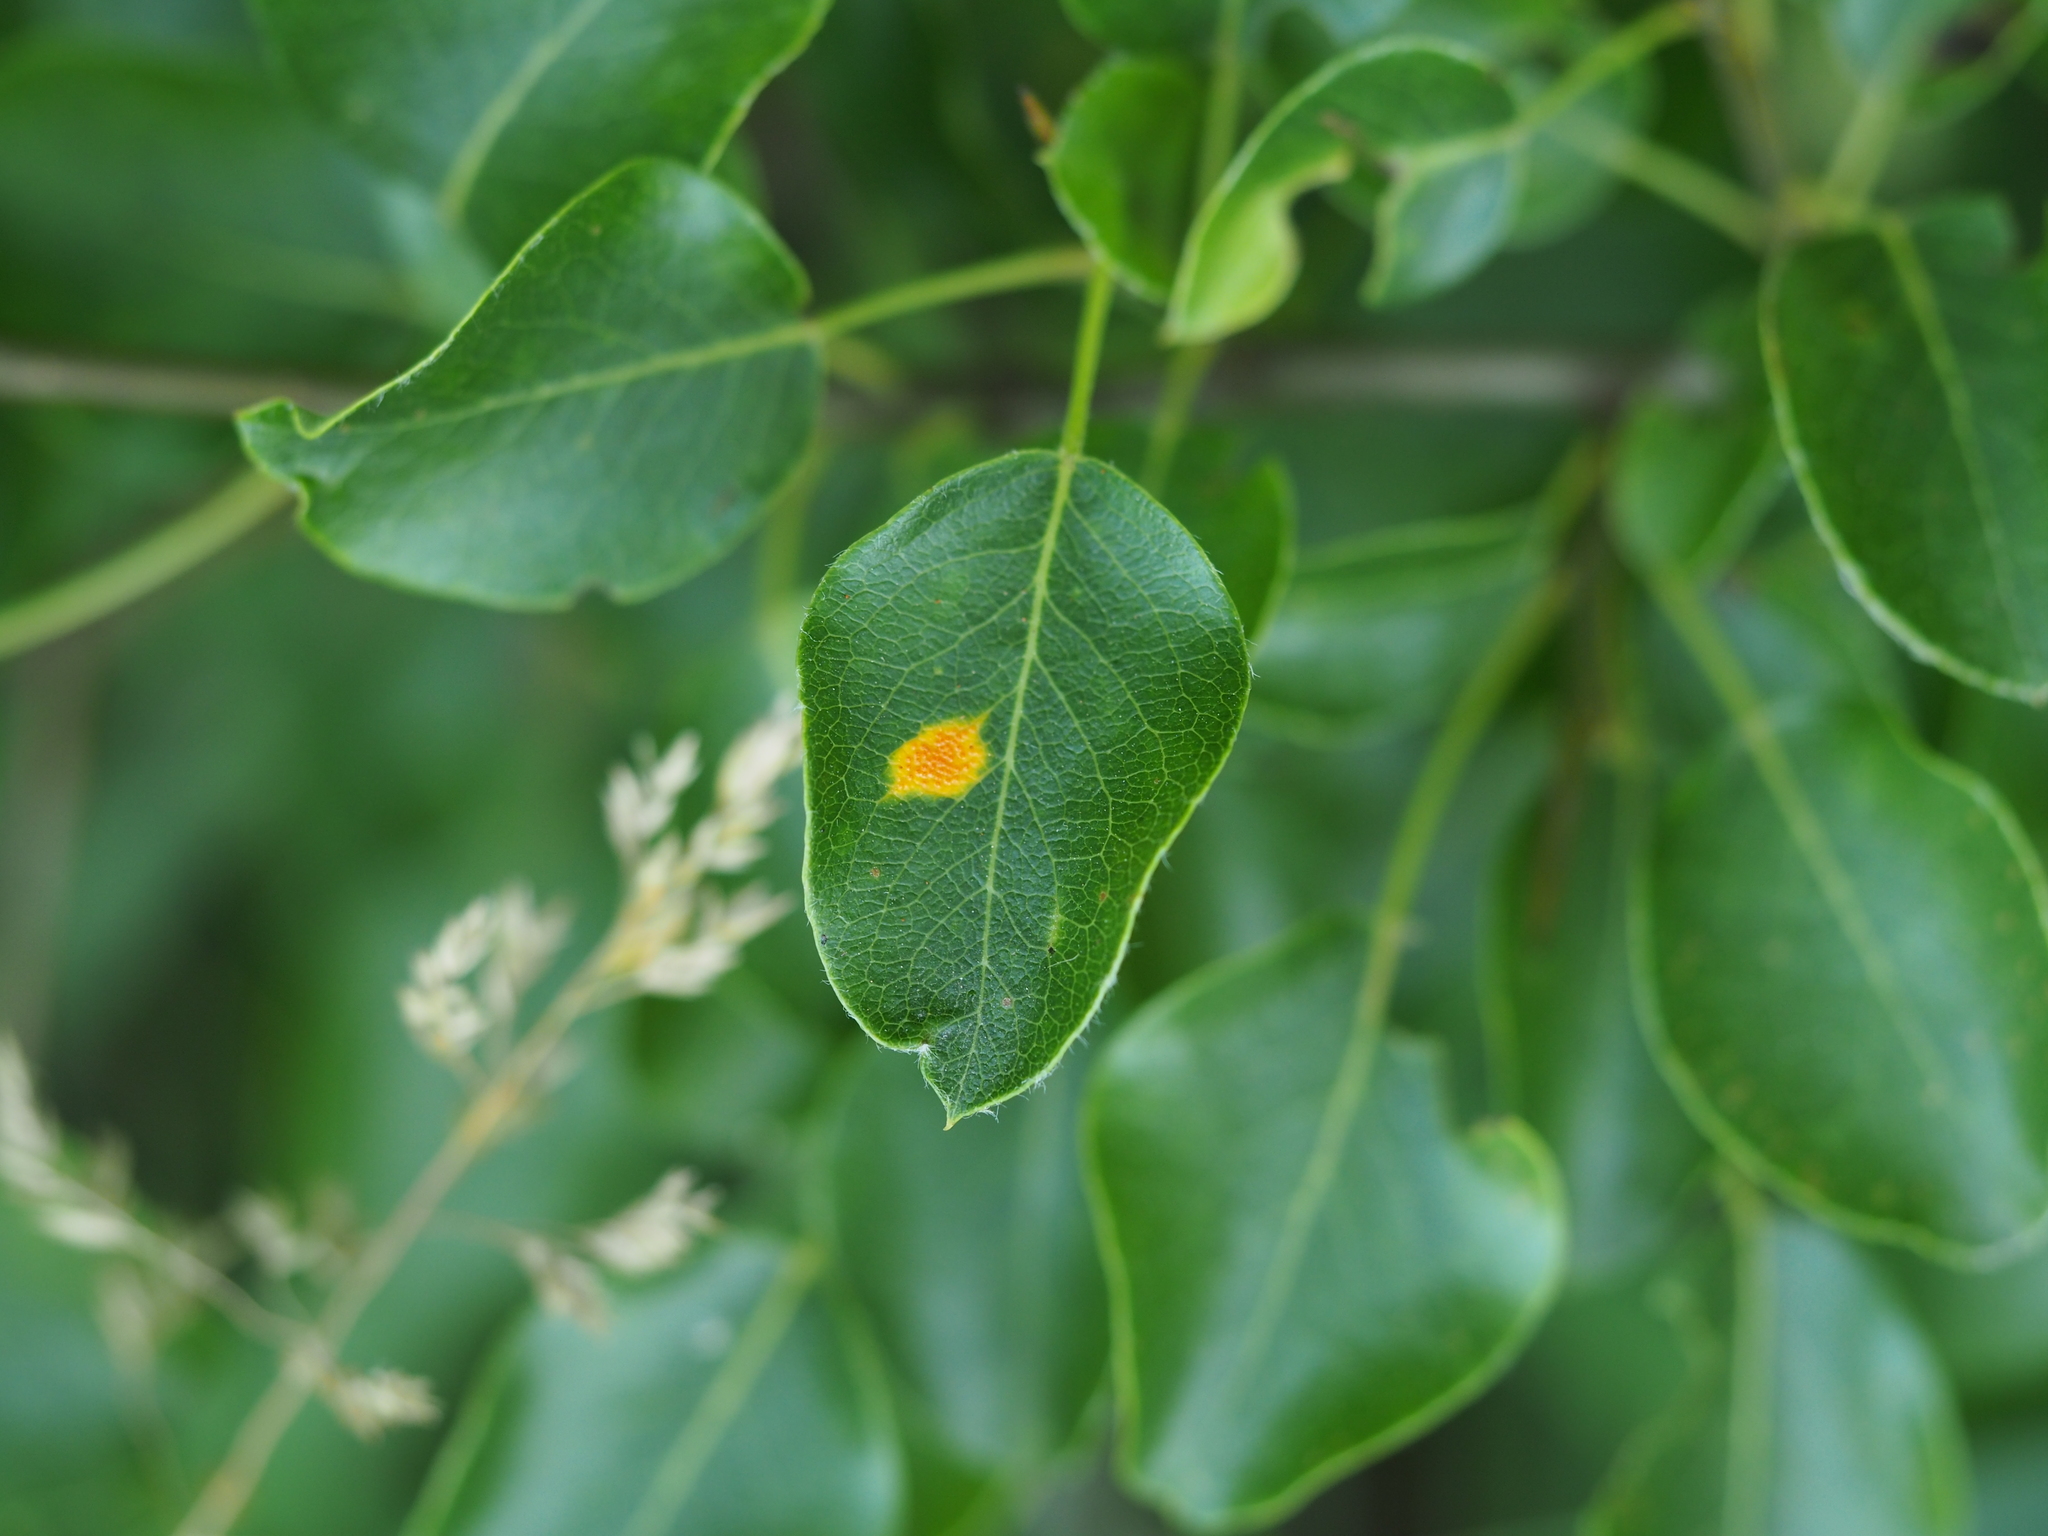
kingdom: Plantae
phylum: Tracheophyta
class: Magnoliopsida
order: Rosales
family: Rosaceae
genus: Pyrus
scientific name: Pyrus communis
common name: Pear
